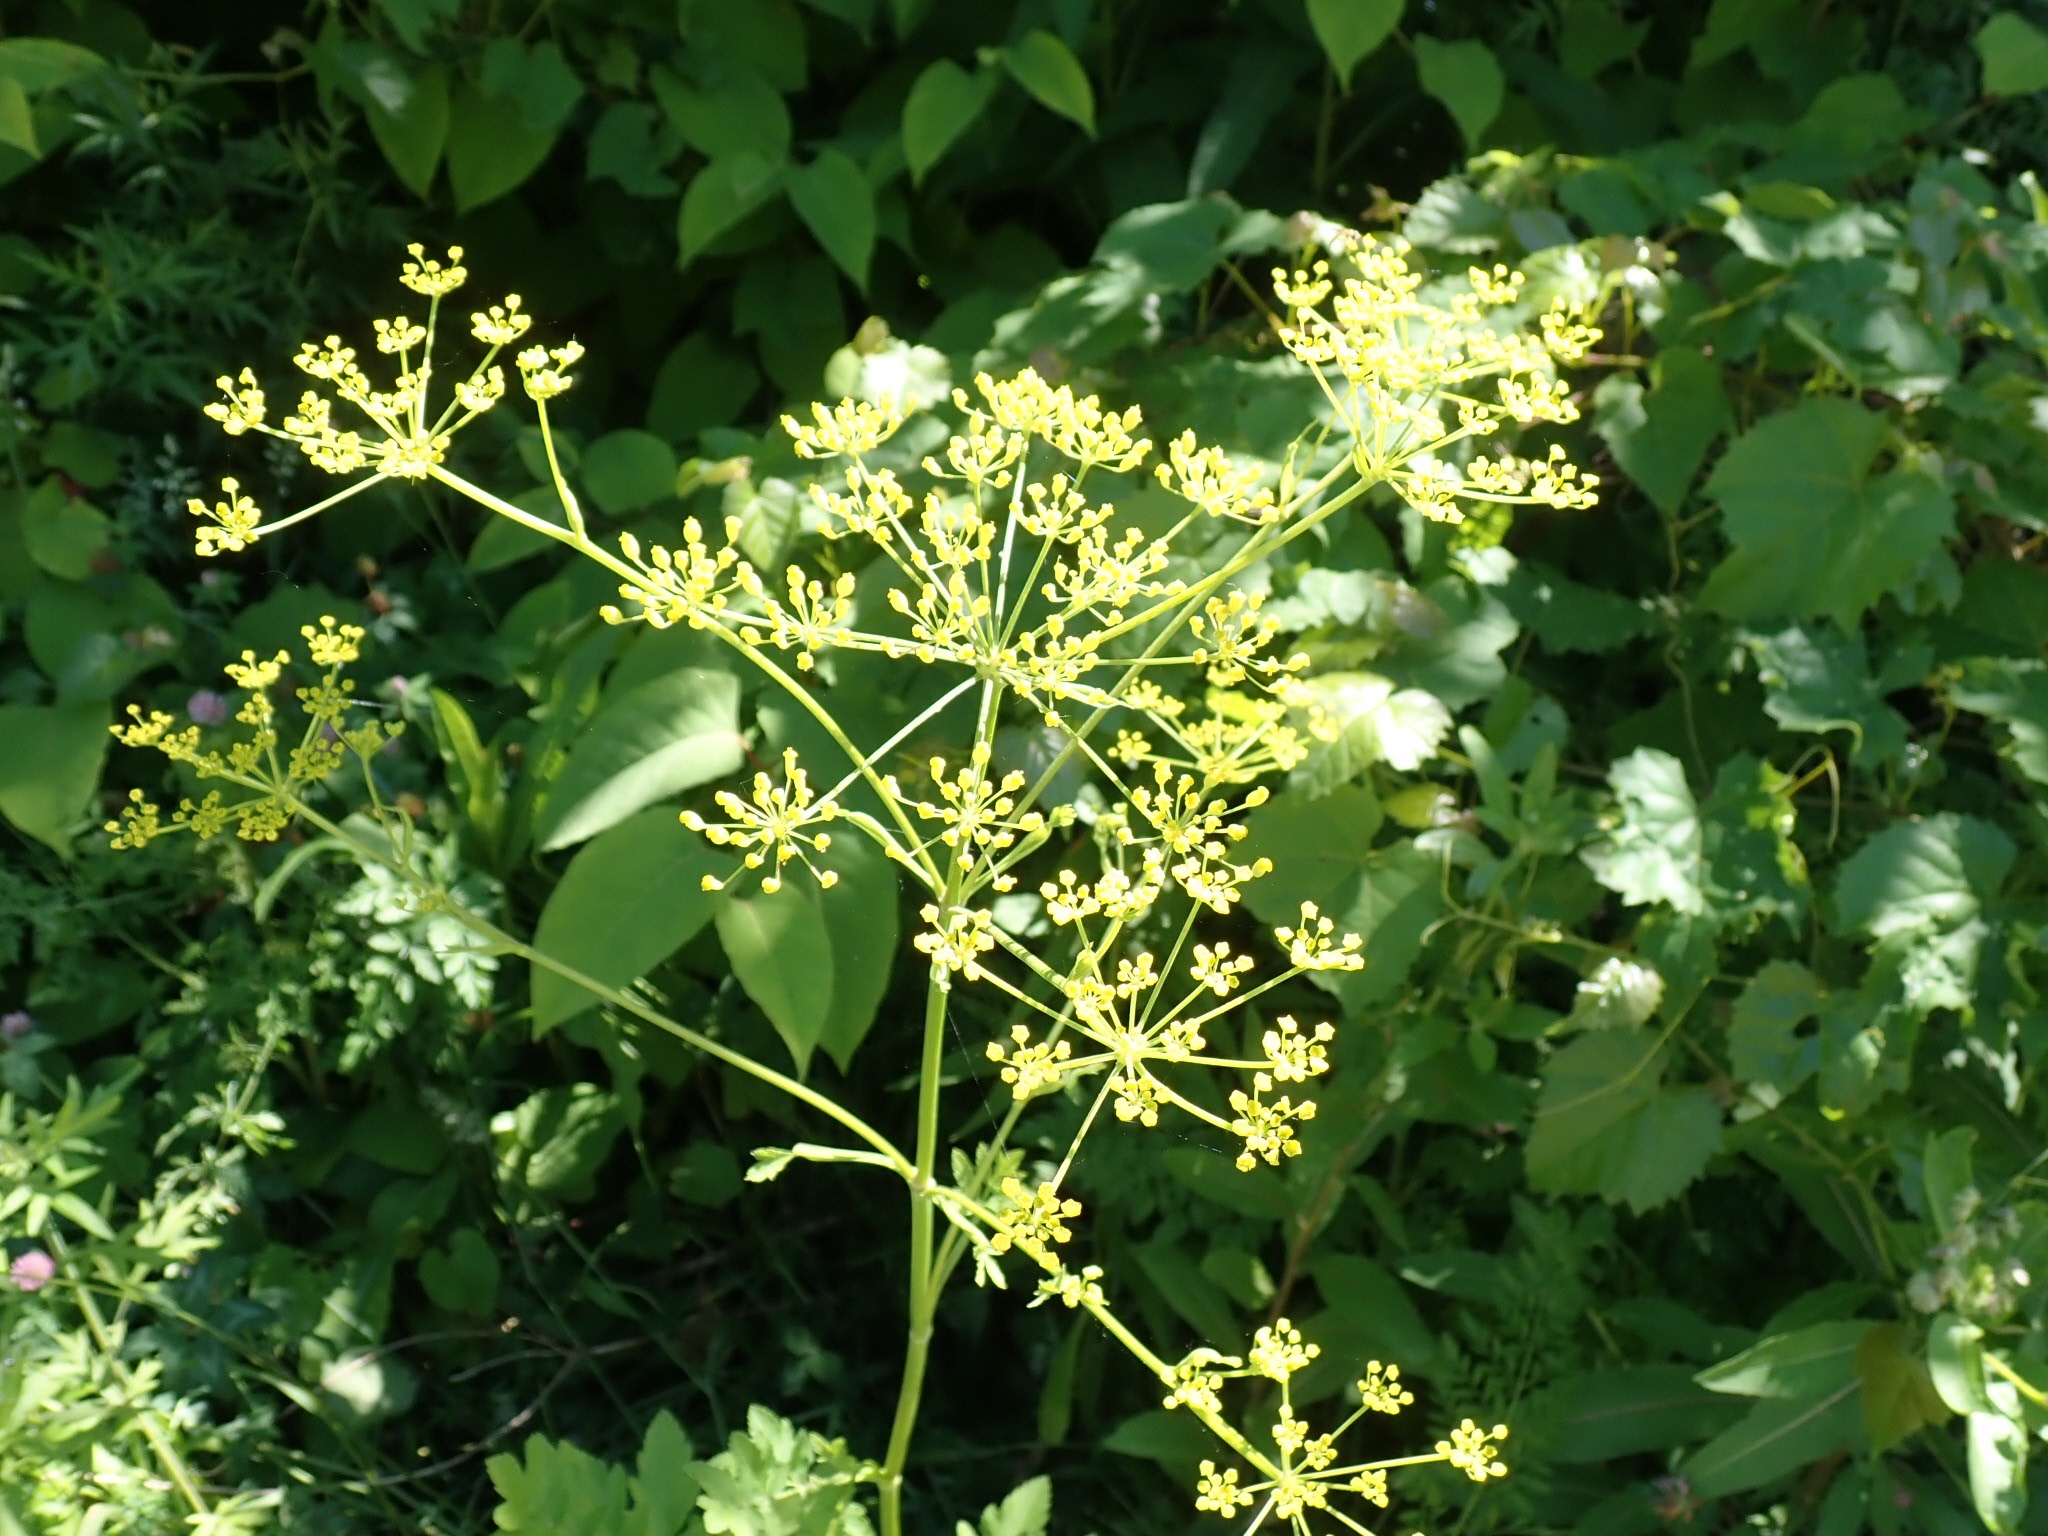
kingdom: Plantae
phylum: Tracheophyta
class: Magnoliopsida
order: Apiales
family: Apiaceae
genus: Pastinaca
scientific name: Pastinaca sativa
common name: Wild parsnip
